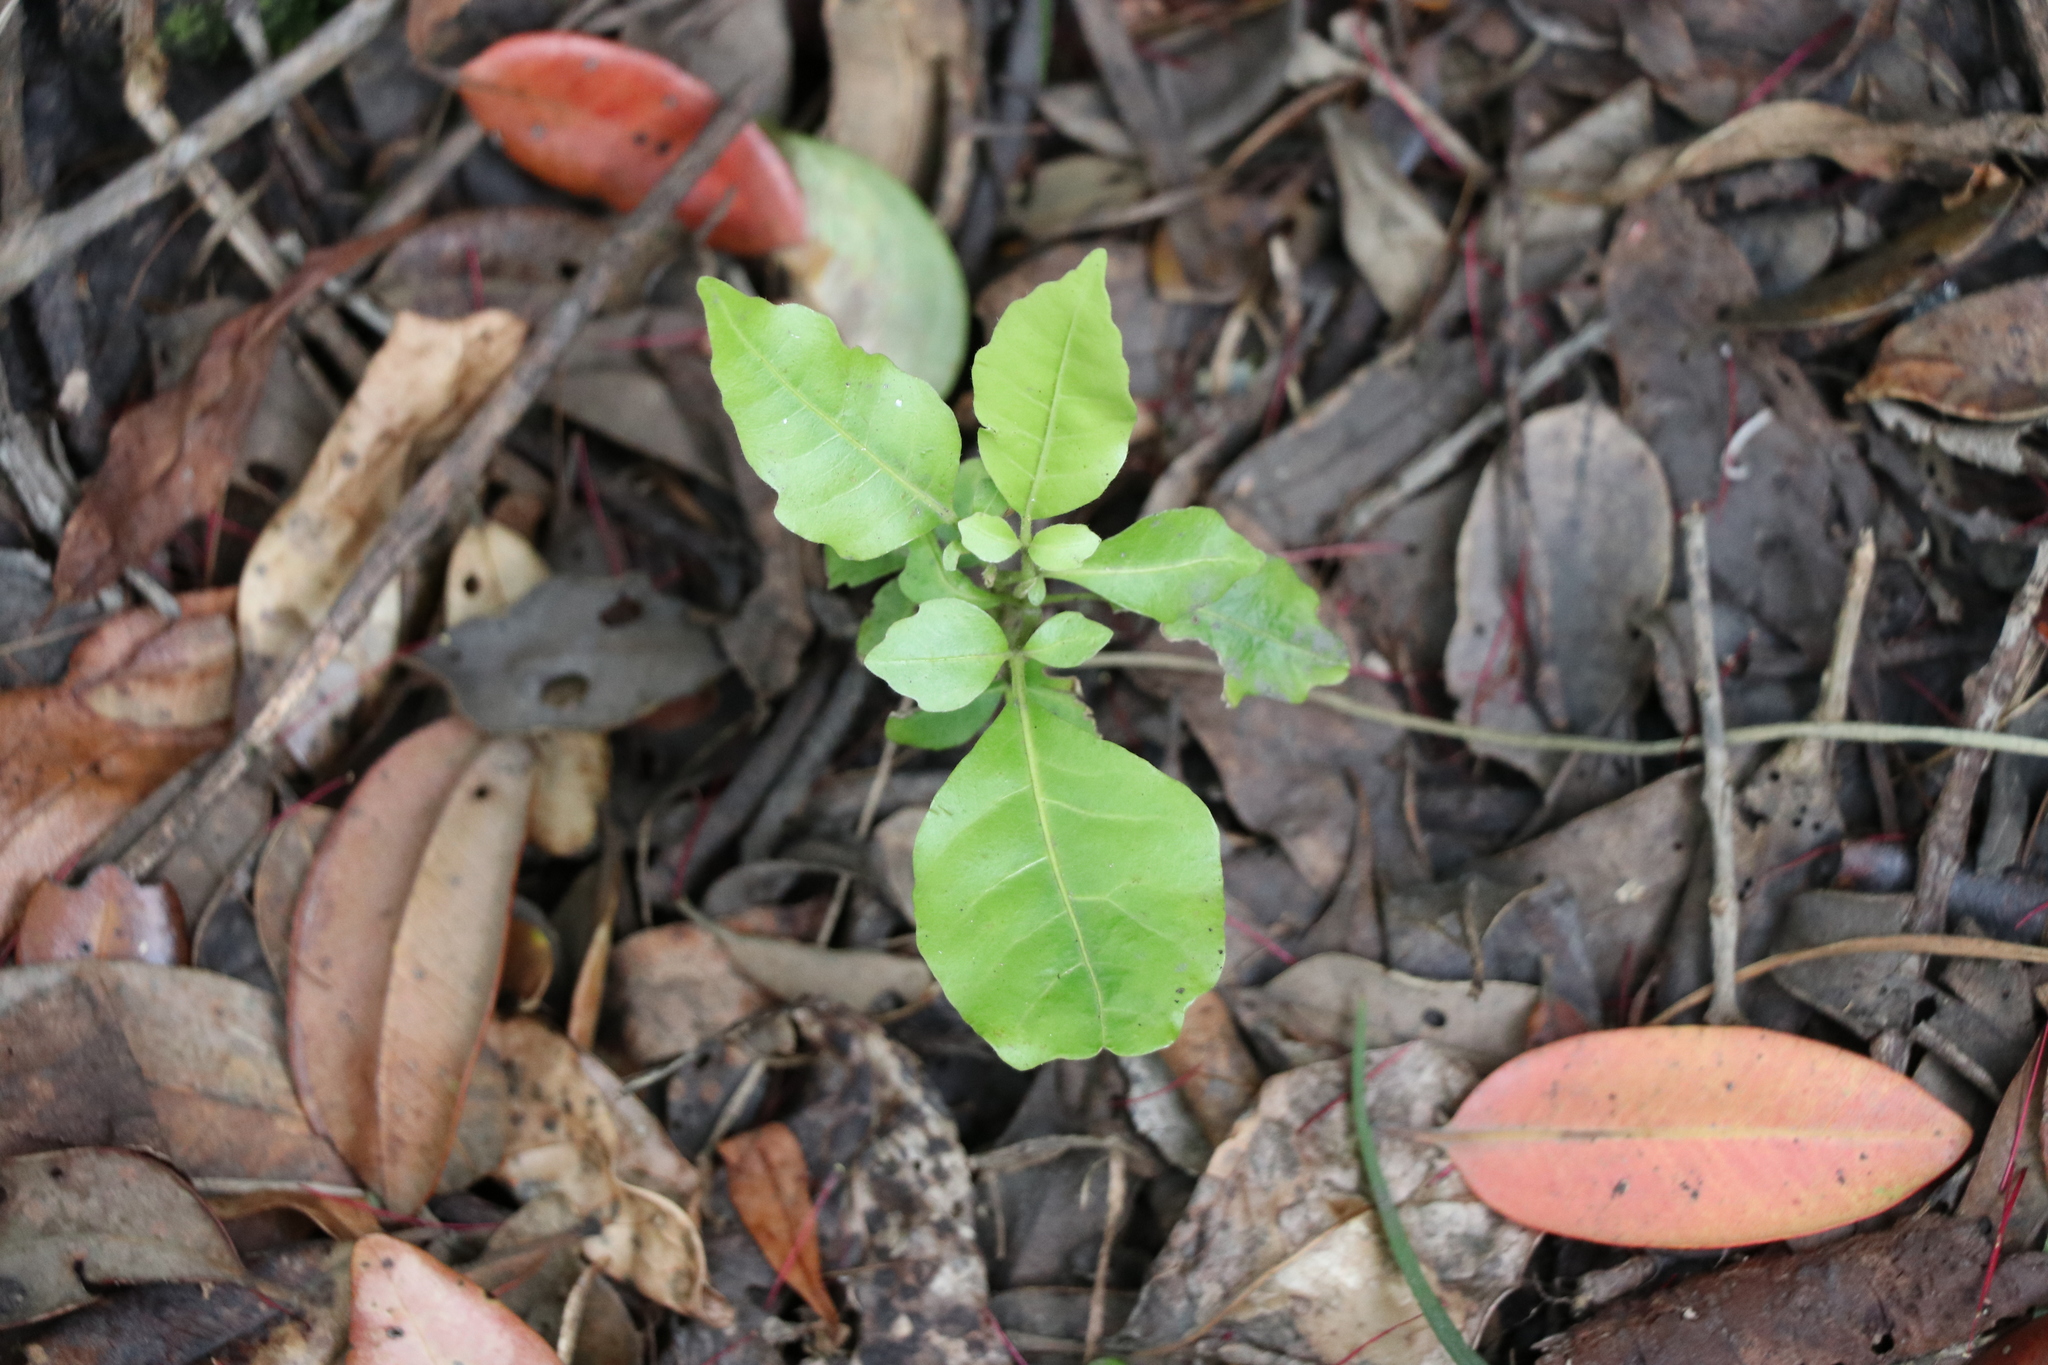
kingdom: Plantae
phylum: Tracheophyta
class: Magnoliopsida
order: Sapindales
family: Meliaceae
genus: Didymocheton
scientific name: Didymocheton spectabilis
